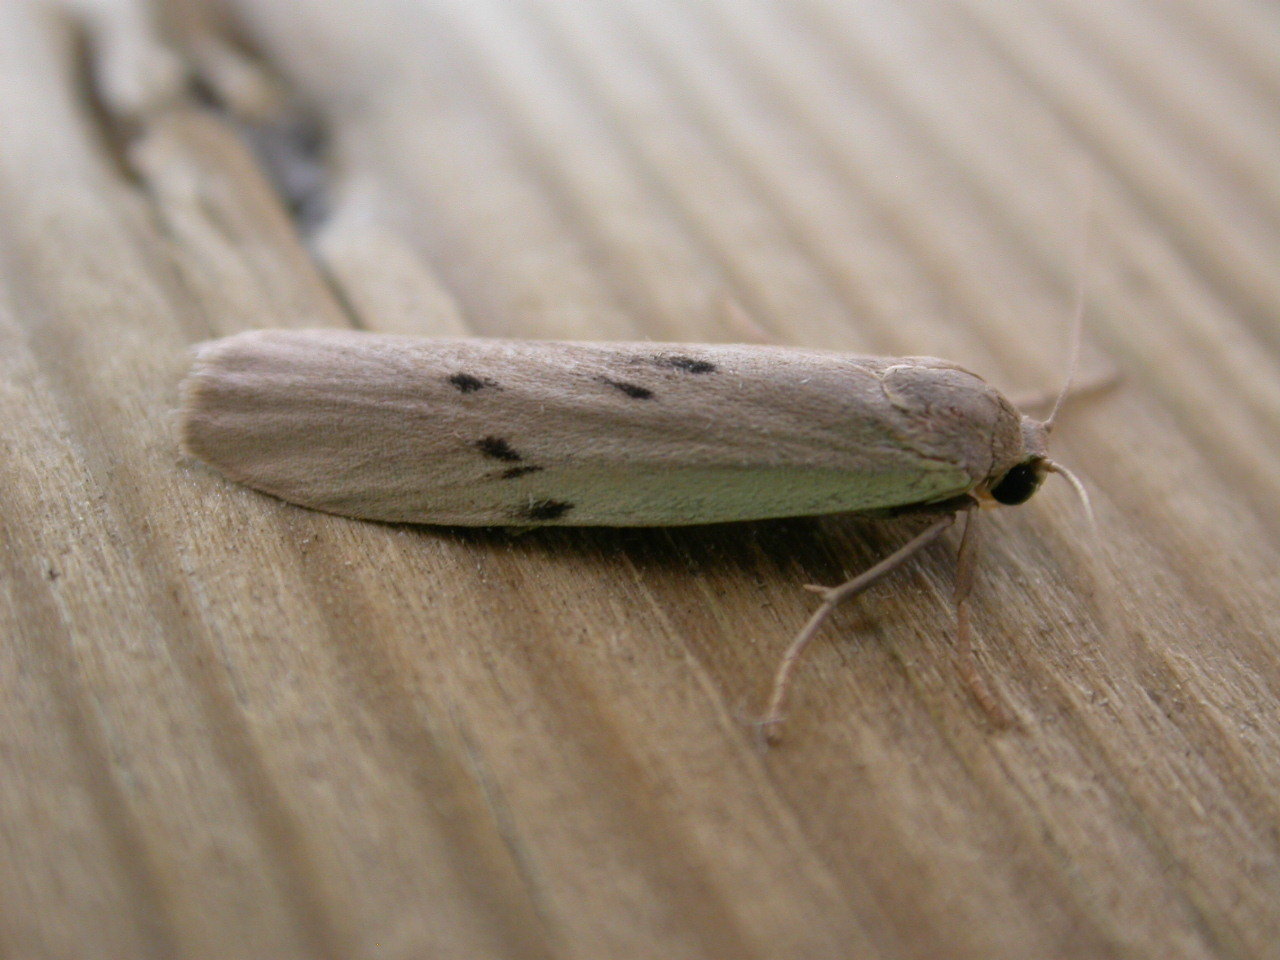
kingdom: Animalia
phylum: Arthropoda
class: Insecta
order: Lepidoptera
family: Erebidae
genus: Pelosia
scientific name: Pelosia muscerda
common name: Dotted footman
